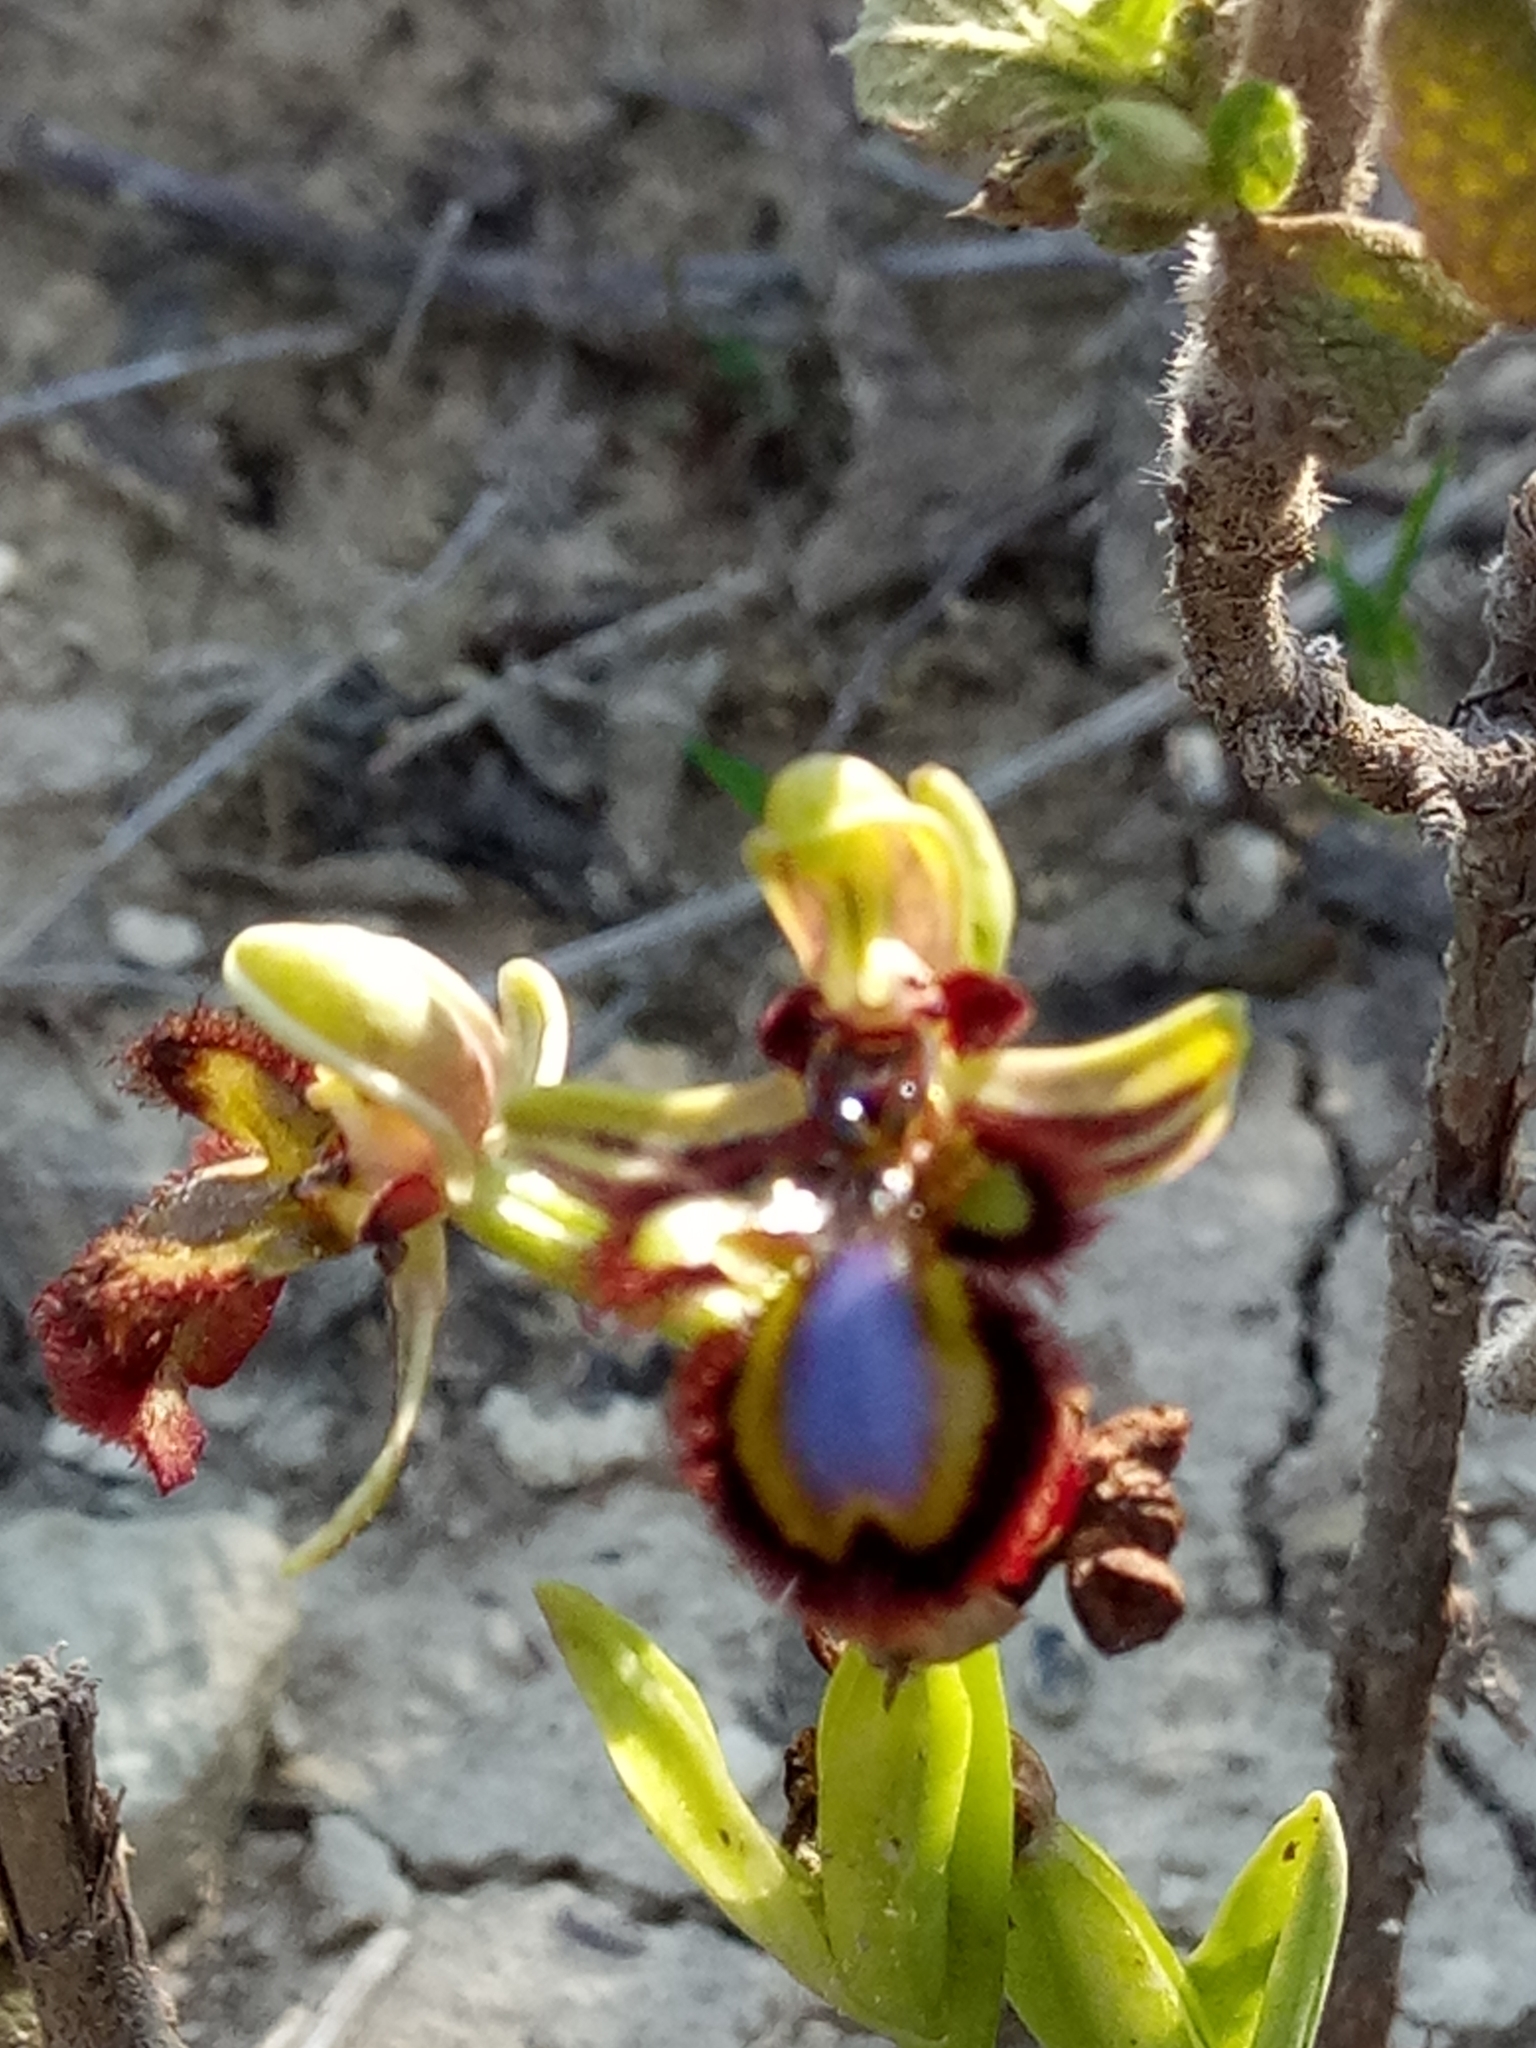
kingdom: Plantae
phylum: Tracheophyta
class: Liliopsida
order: Asparagales
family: Orchidaceae
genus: Ophrys
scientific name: Ophrys speculum
